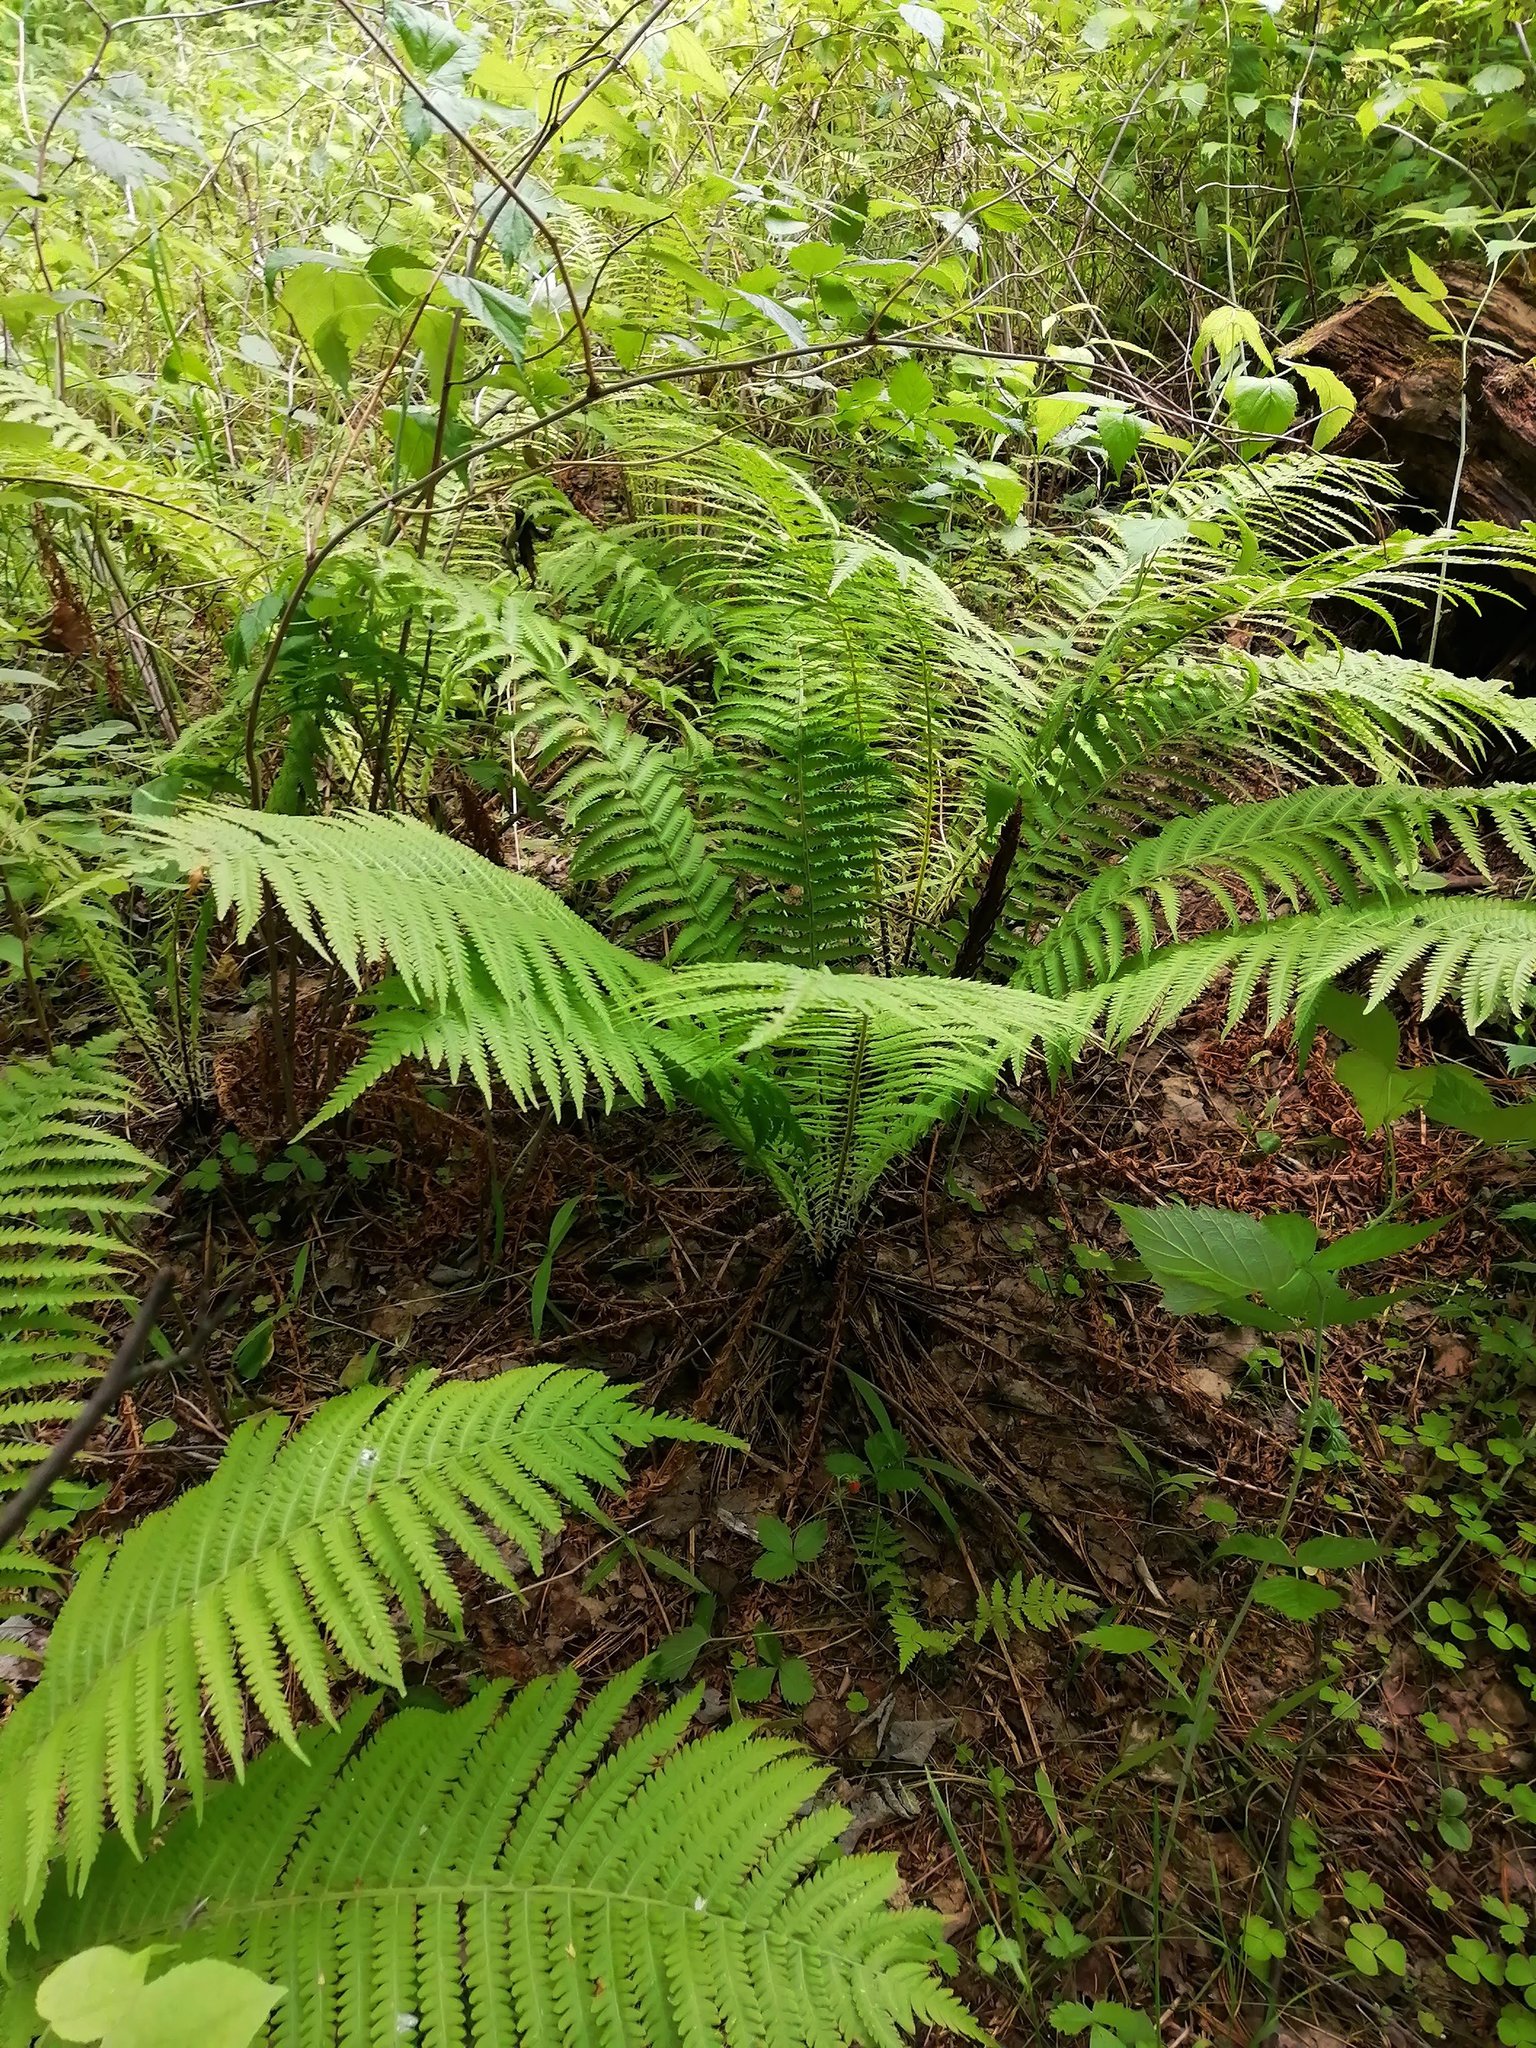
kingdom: Plantae
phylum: Tracheophyta
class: Polypodiopsida
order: Polypodiales
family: Onocleaceae
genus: Matteuccia
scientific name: Matteuccia struthiopteris
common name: Ostrich fern
